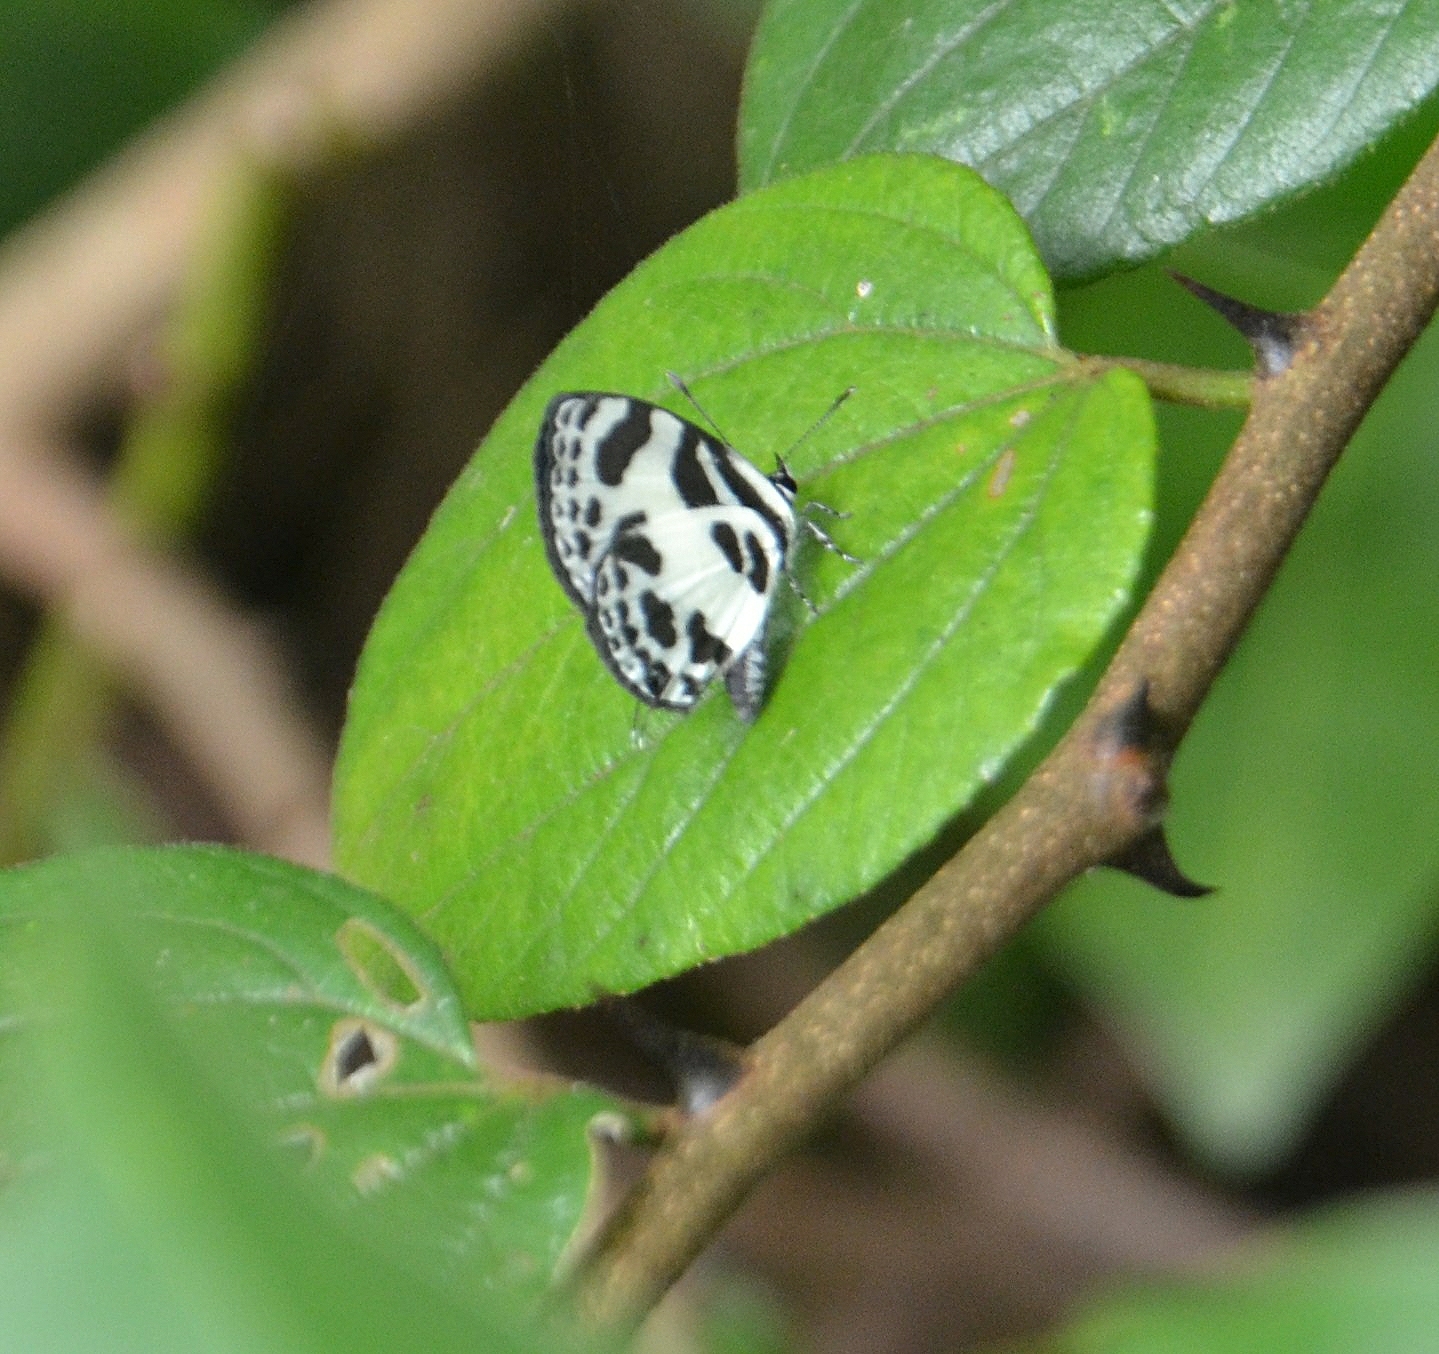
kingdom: Animalia
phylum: Arthropoda
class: Insecta
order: Lepidoptera
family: Lycaenidae
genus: Discolampa
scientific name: Discolampa ethion
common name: Banded blue pierrot
